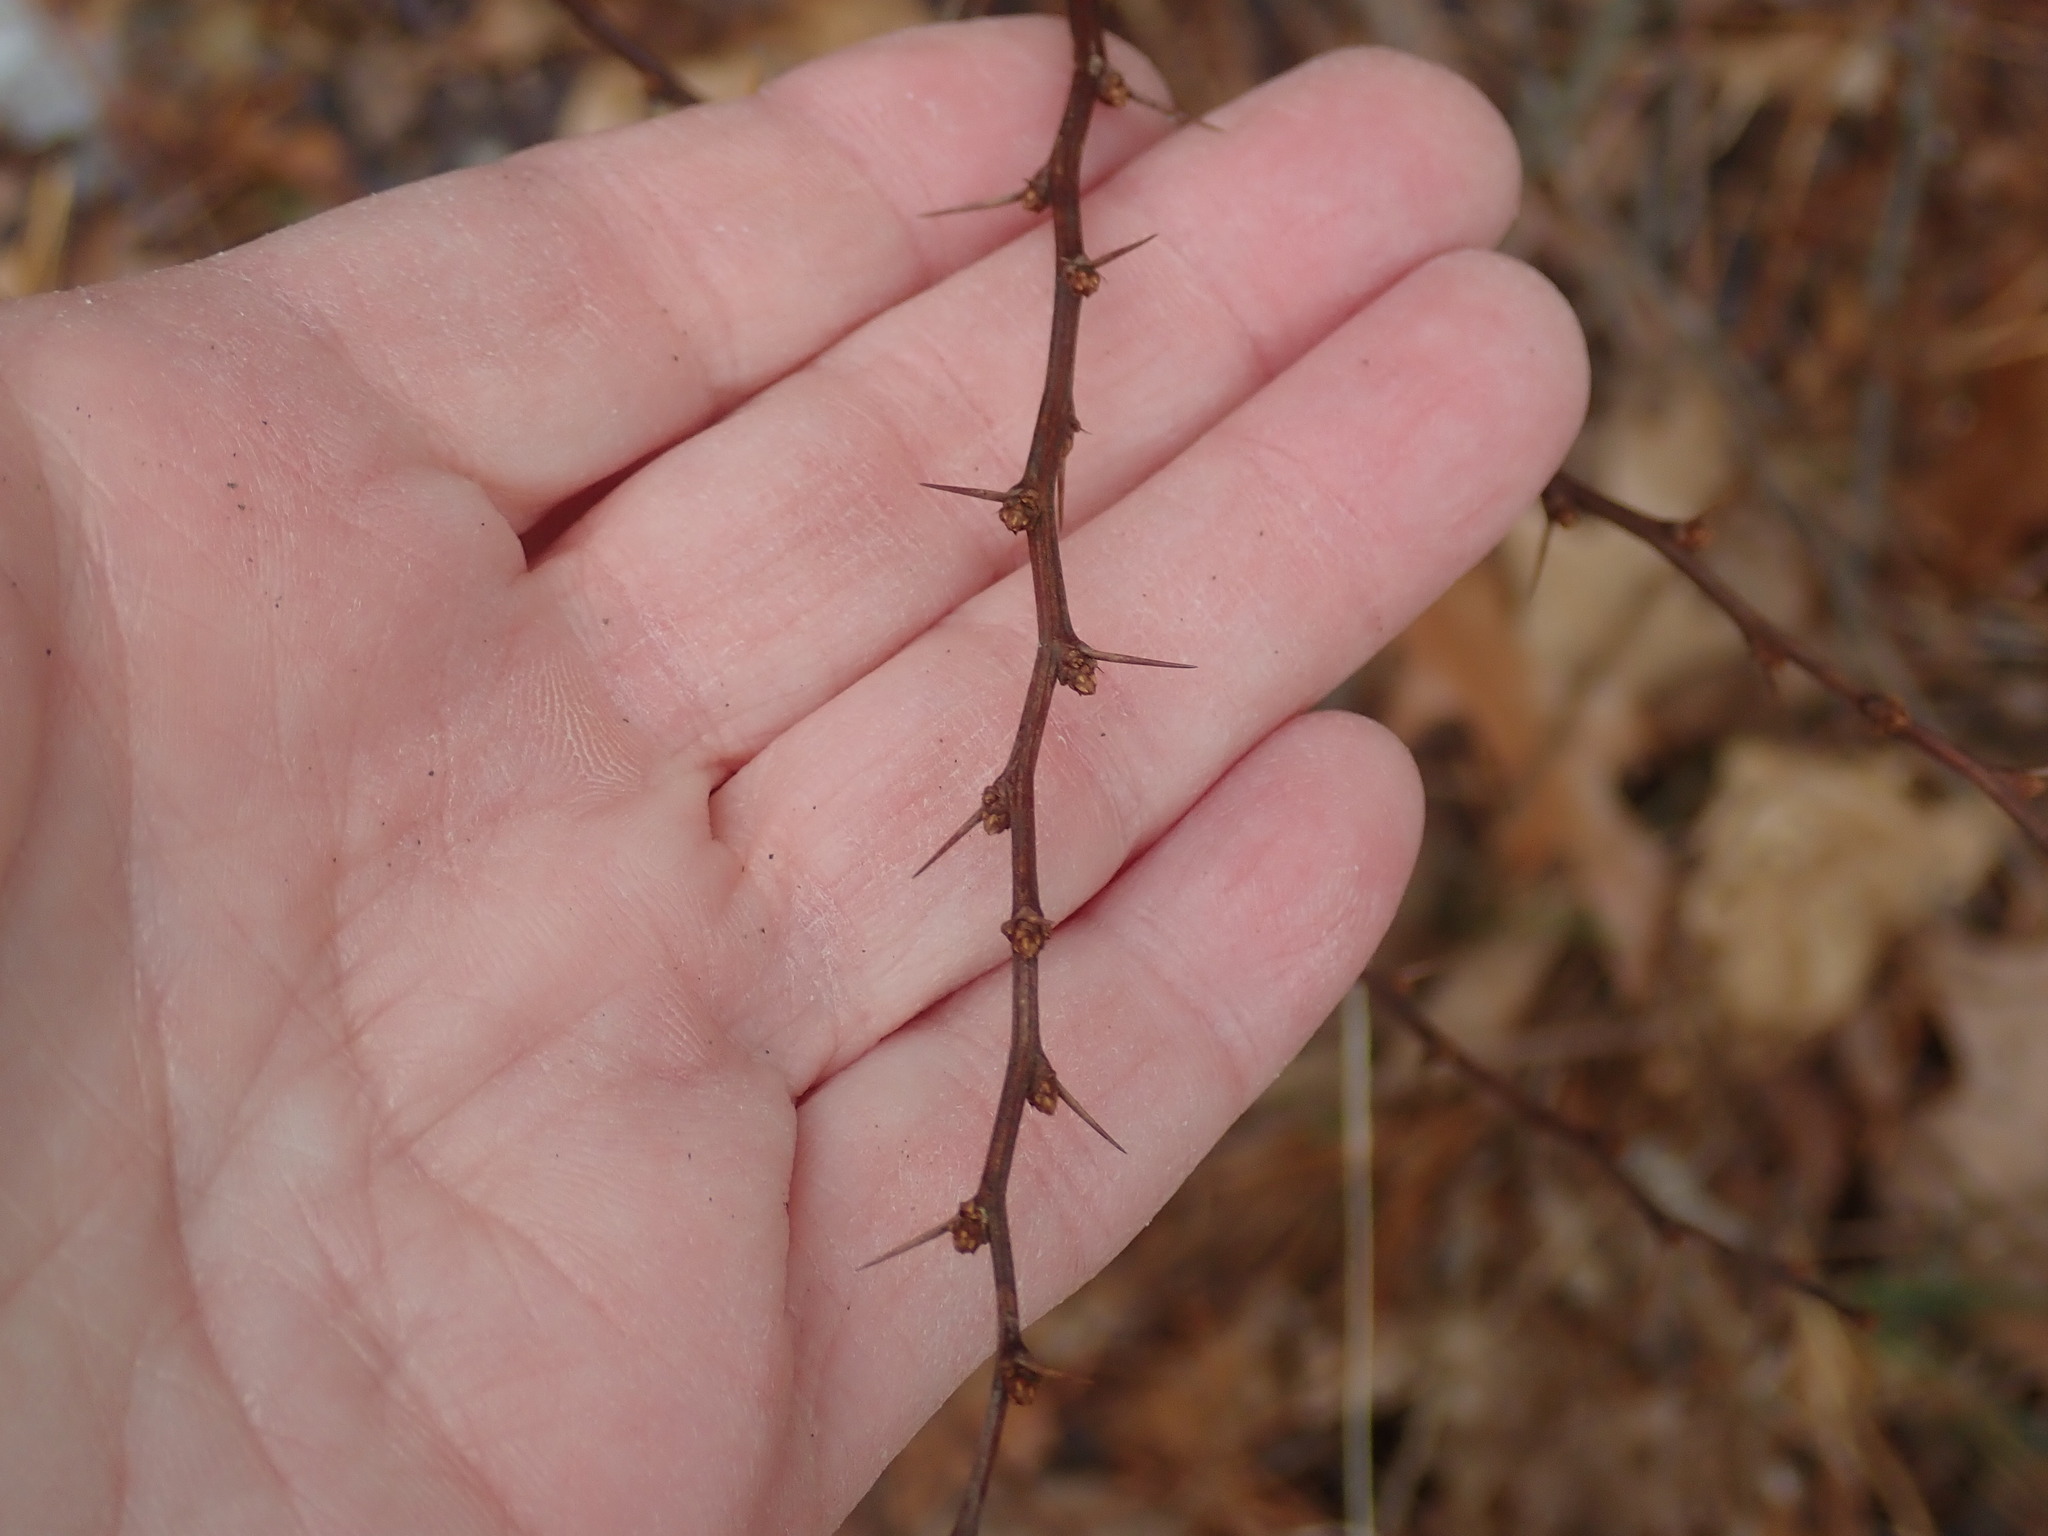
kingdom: Plantae
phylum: Tracheophyta
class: Magnoliopsida
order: Ranunculales
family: Berberidaceae
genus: Berberis
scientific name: Berberis thunbergii
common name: Japanese barberry
